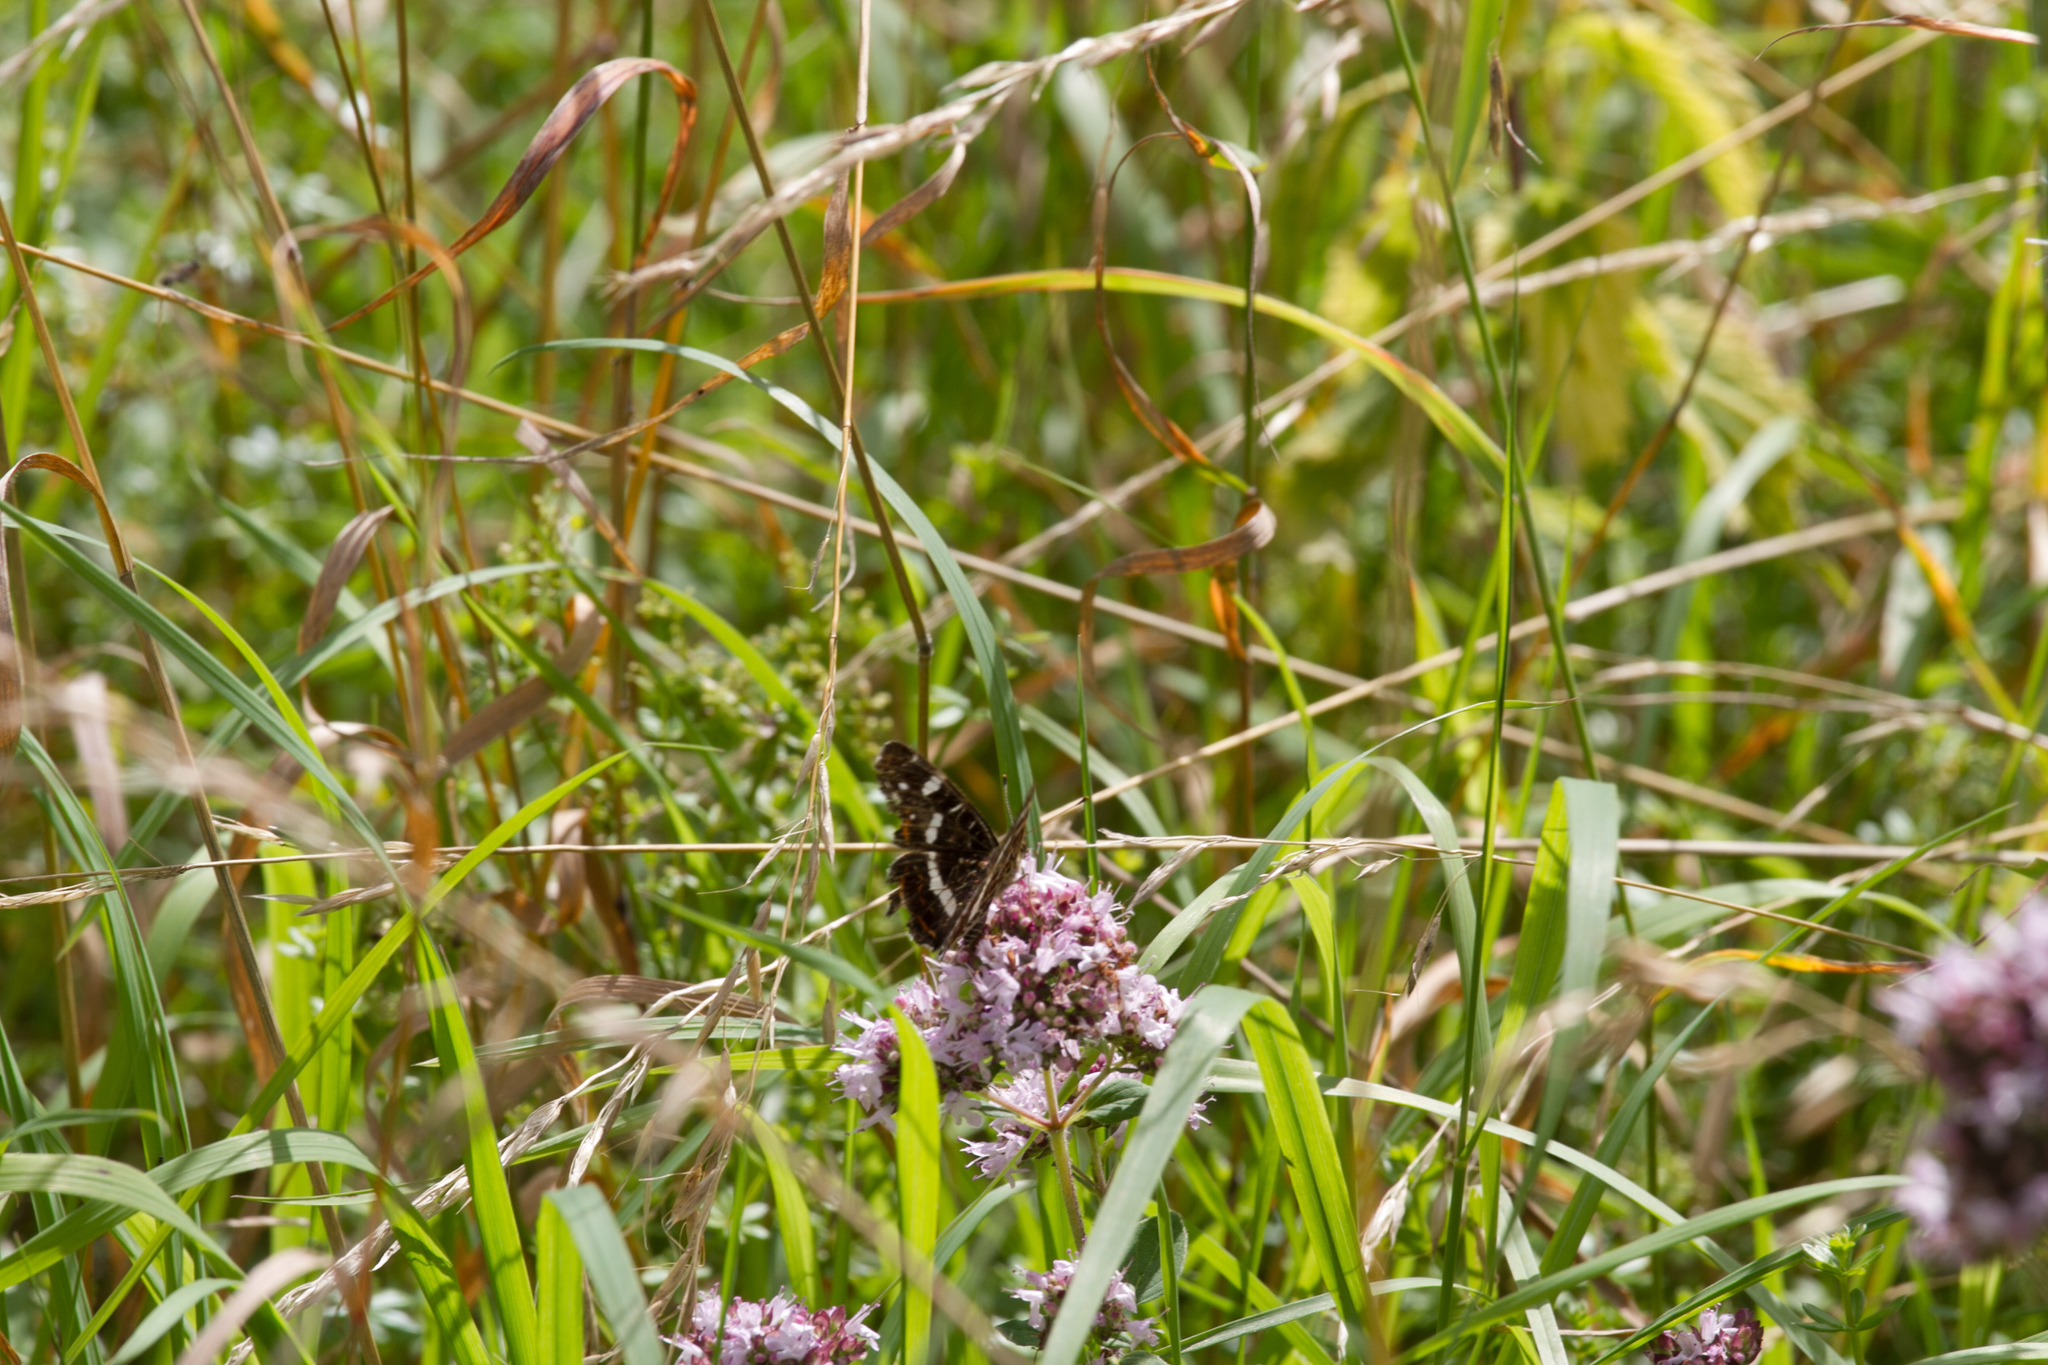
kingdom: Animalia
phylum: Arthropoda
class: Insecta
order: Lepidoptera
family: Nymphalidae
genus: Araschnia
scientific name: Araschnia levana
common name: Map butterfly
